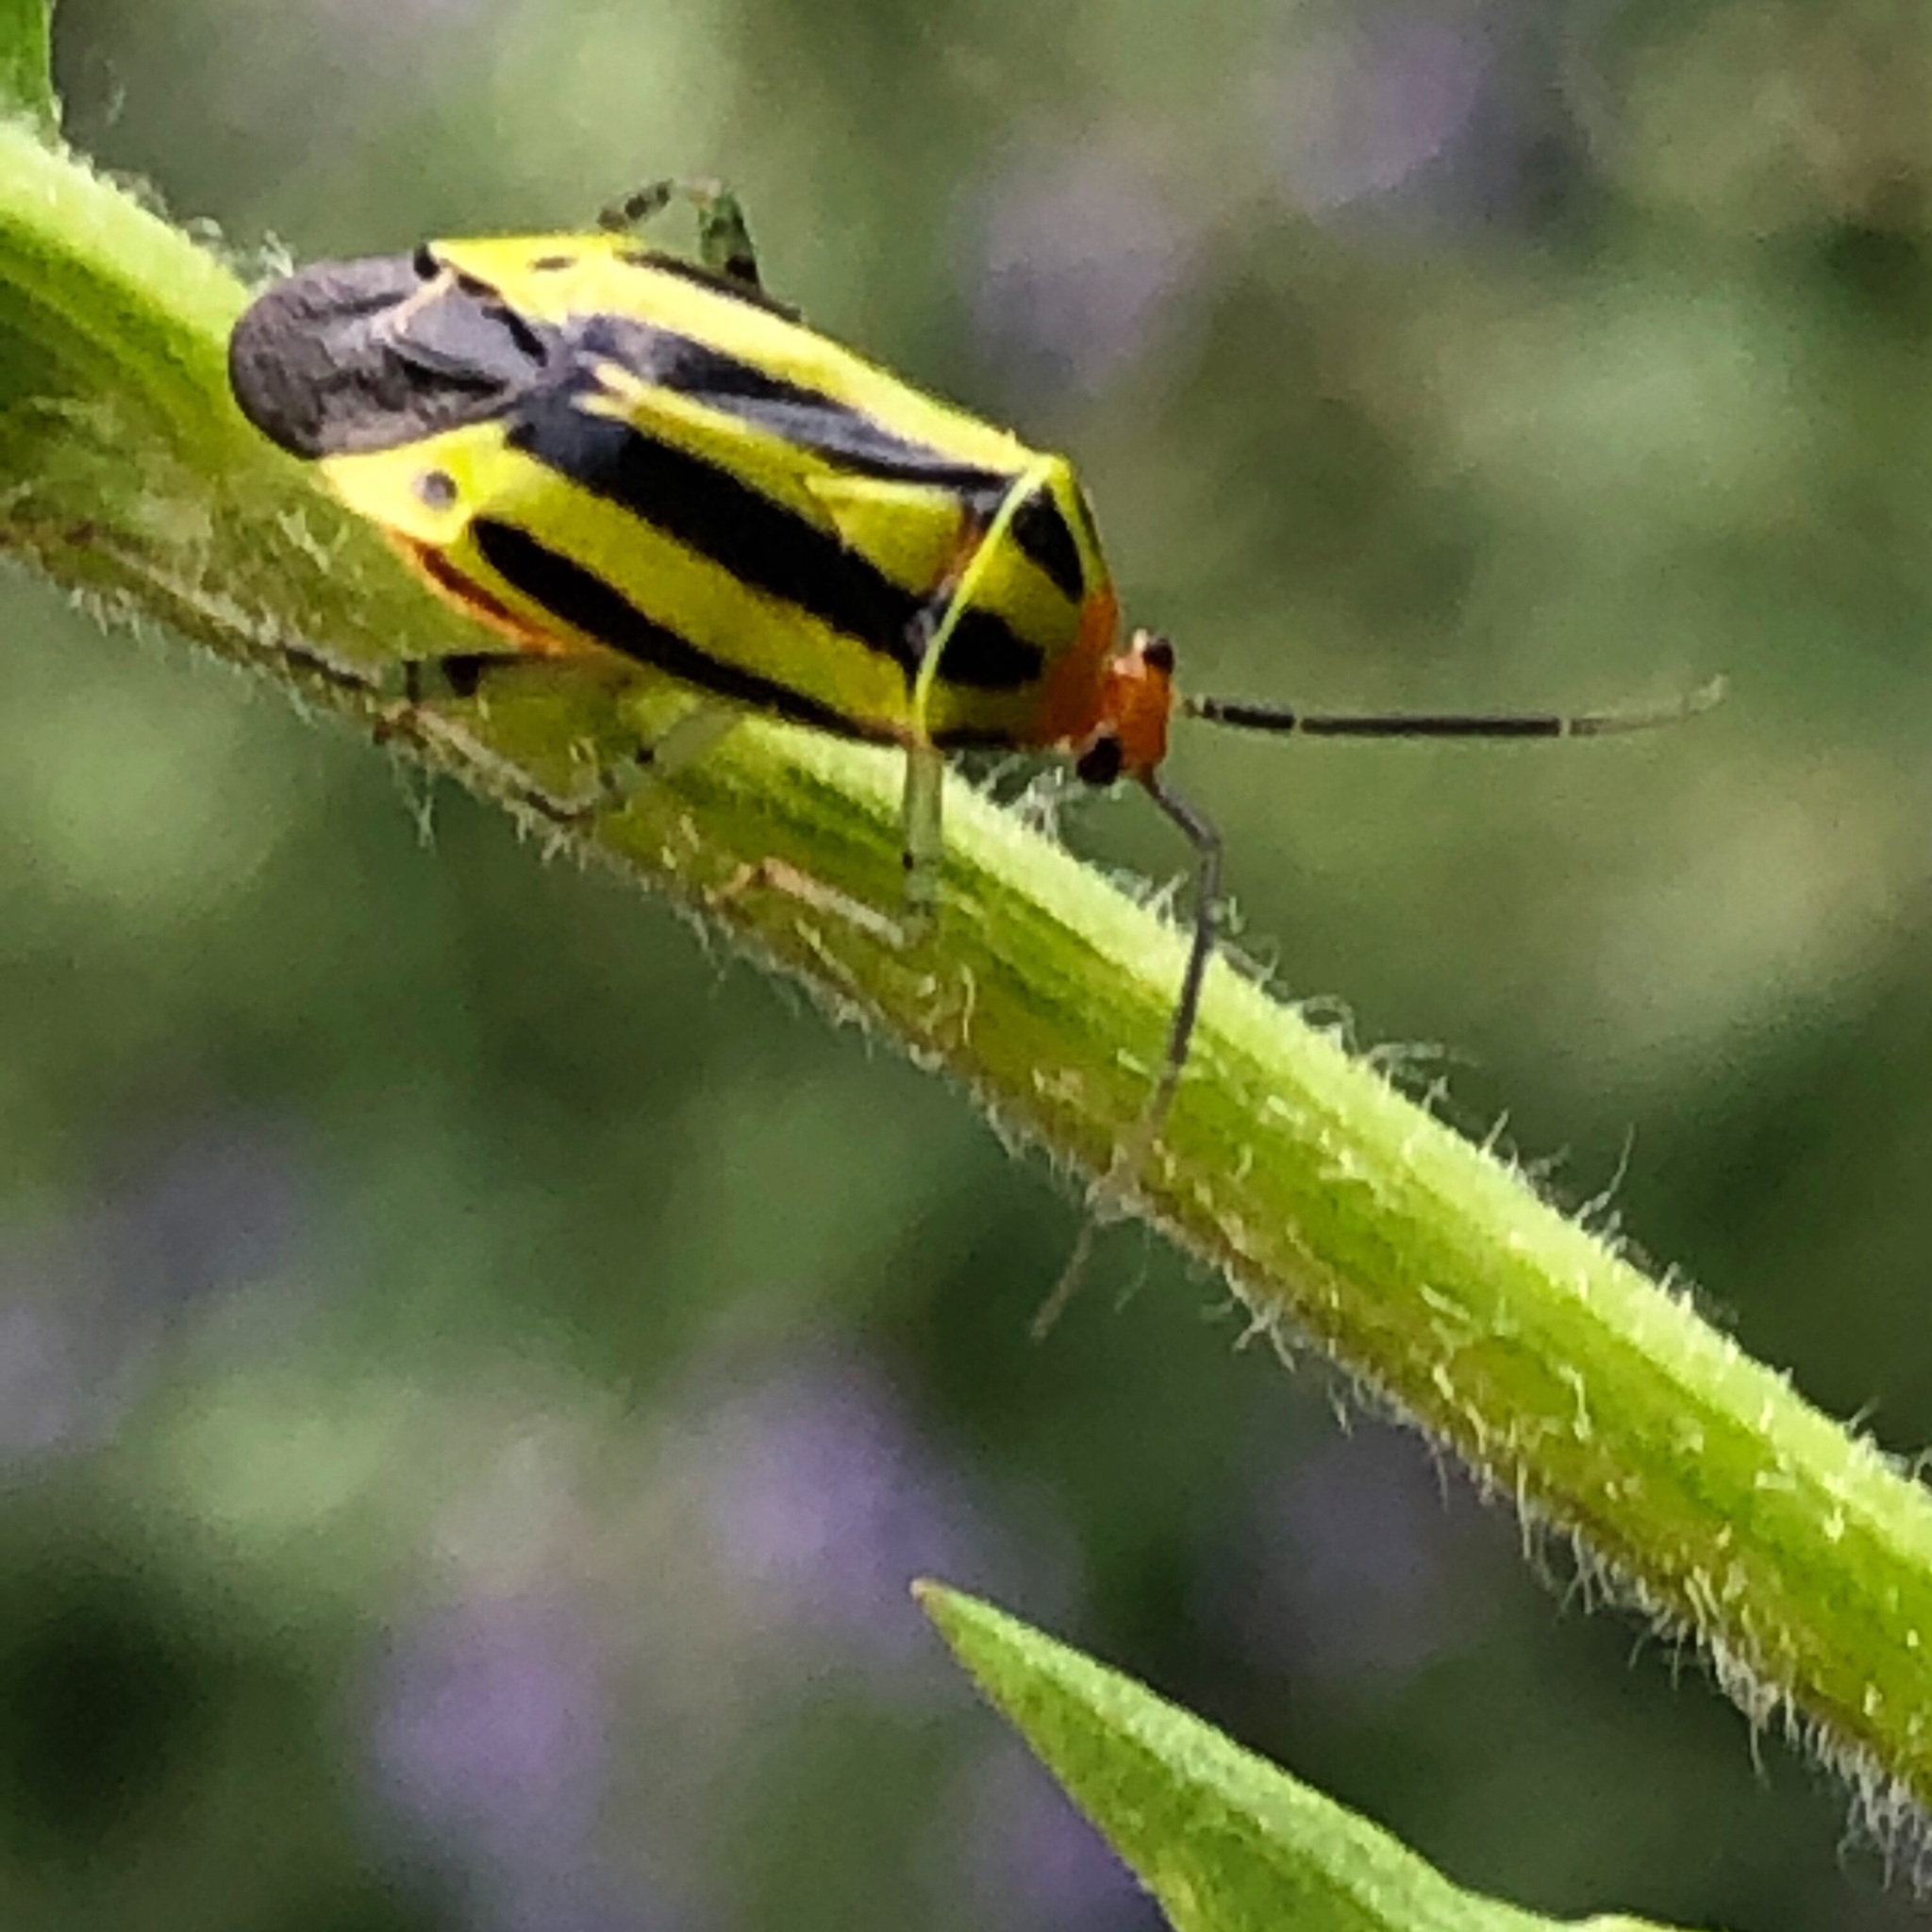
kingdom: Animalia
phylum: Arthropoda
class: Insecta
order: Hemiptera
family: Miridae
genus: Poecilocapsus
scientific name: Poecilocapsus lineatus
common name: Four-lined plant bug
